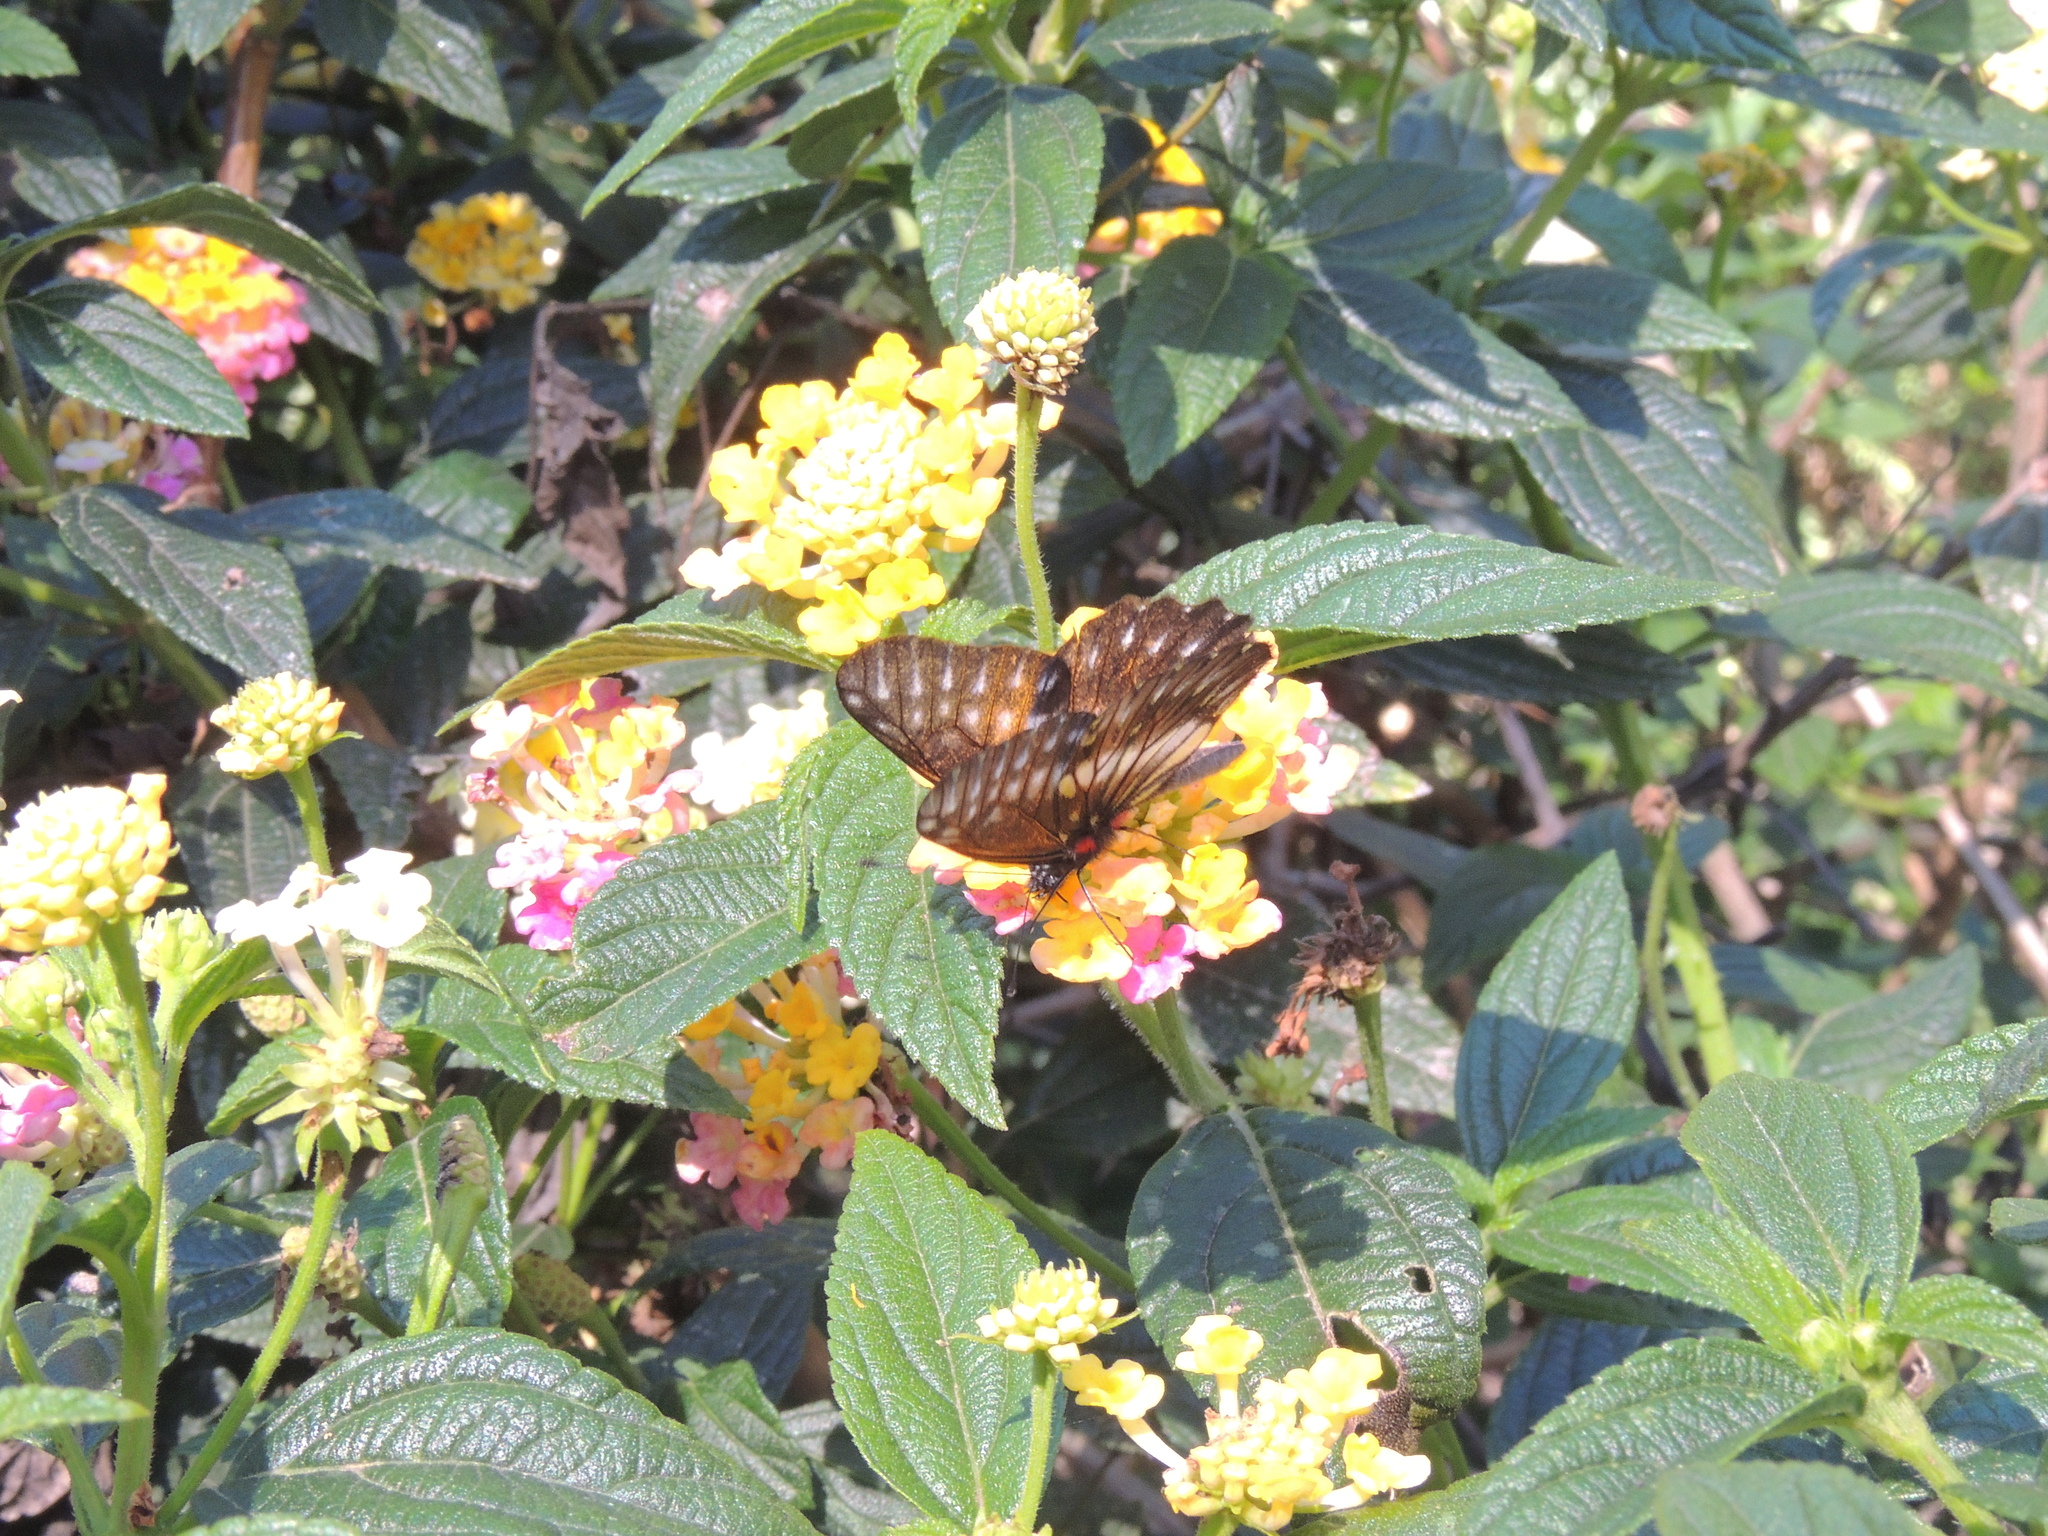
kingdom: Animalia
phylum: Arthropoda
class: Insecta
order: Lepidoptera
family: Pieridae
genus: Archonias
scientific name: Archonias flisa
